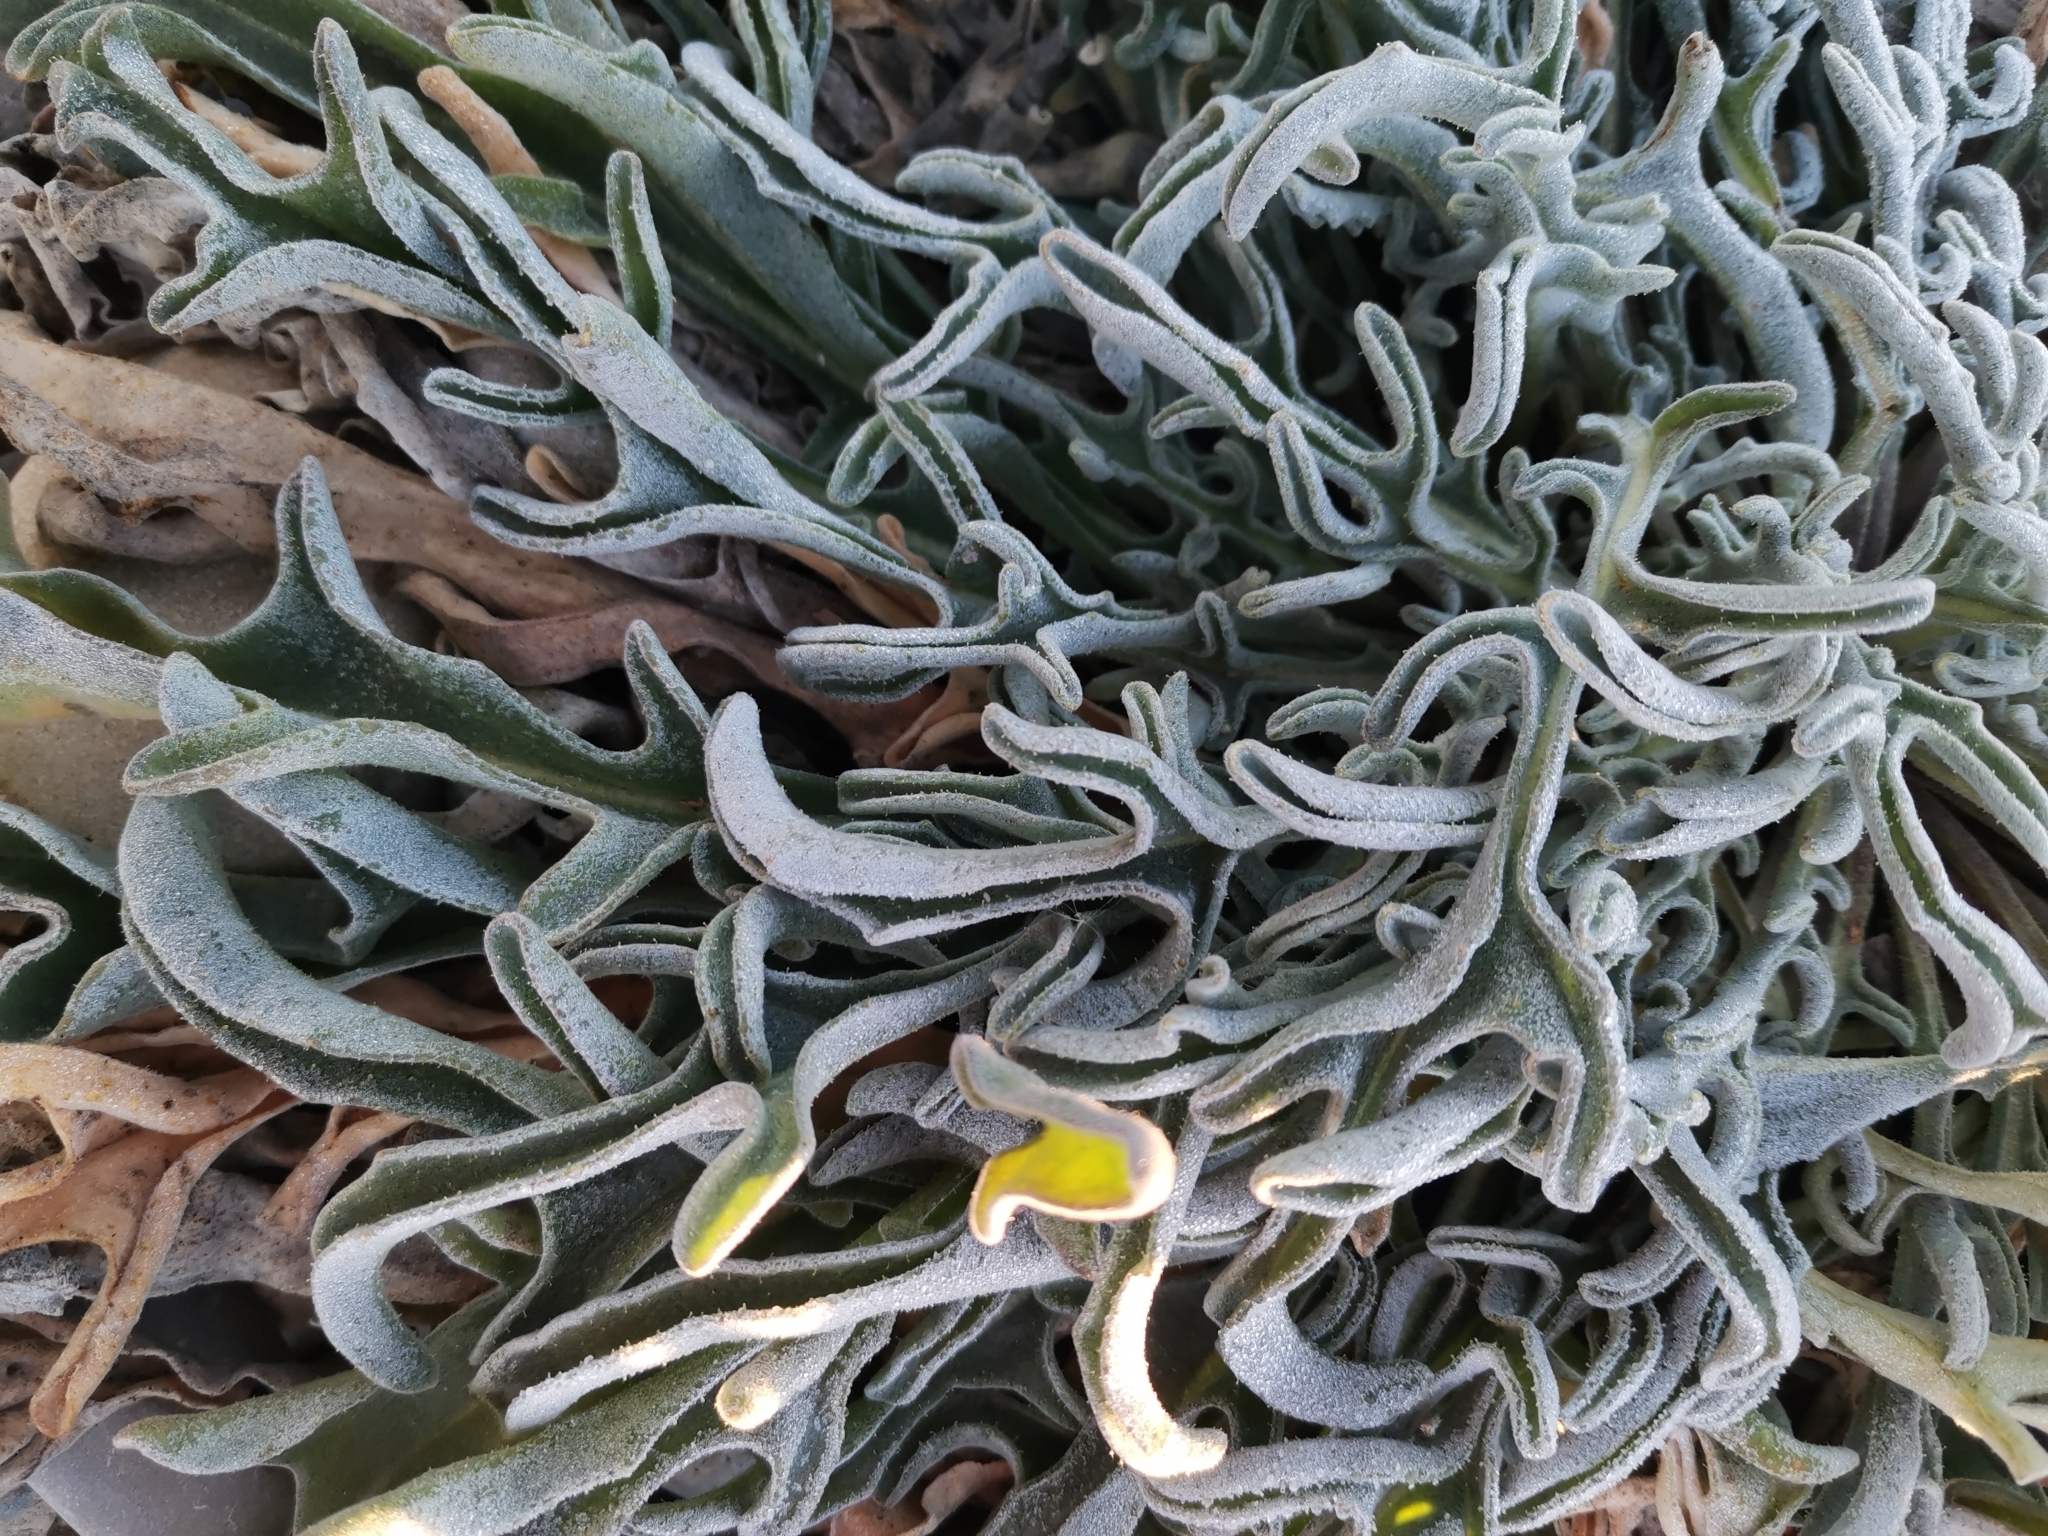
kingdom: Plantae
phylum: Tracheophyta
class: Magnoliopsida
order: Brassicales
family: Brassicaceae
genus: Matthiola
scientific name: Matthiola sinuata
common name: Sea stock
